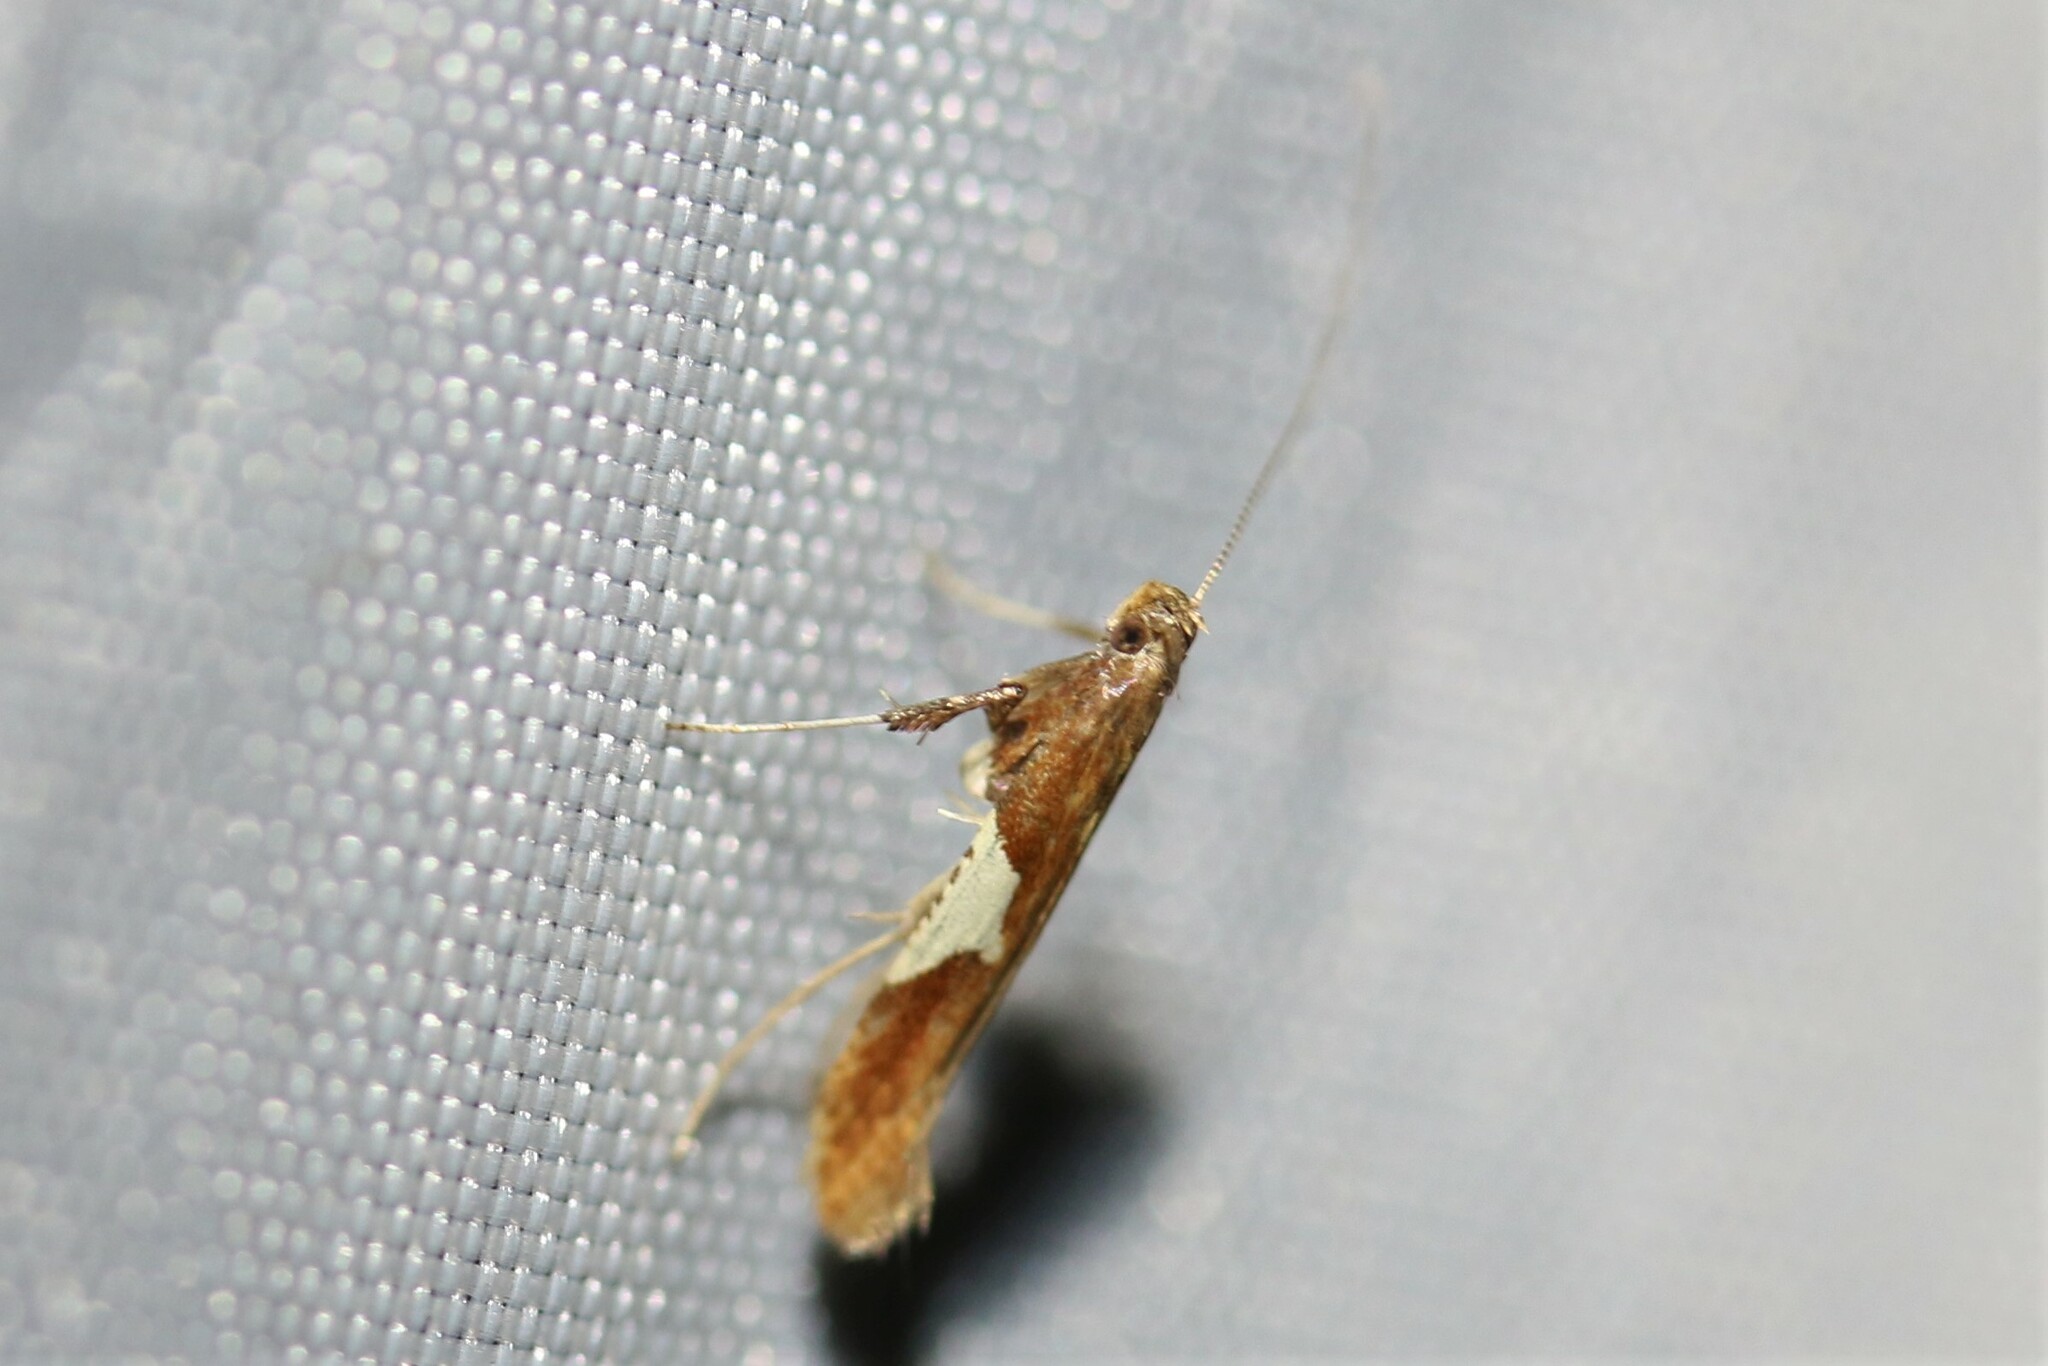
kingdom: Animalia
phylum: Arthropoda
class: Insecta
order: Lepidoptera
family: Gracillariidae
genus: Caloptilia
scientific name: Caloptilia stigmatella
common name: White-triangle slender
